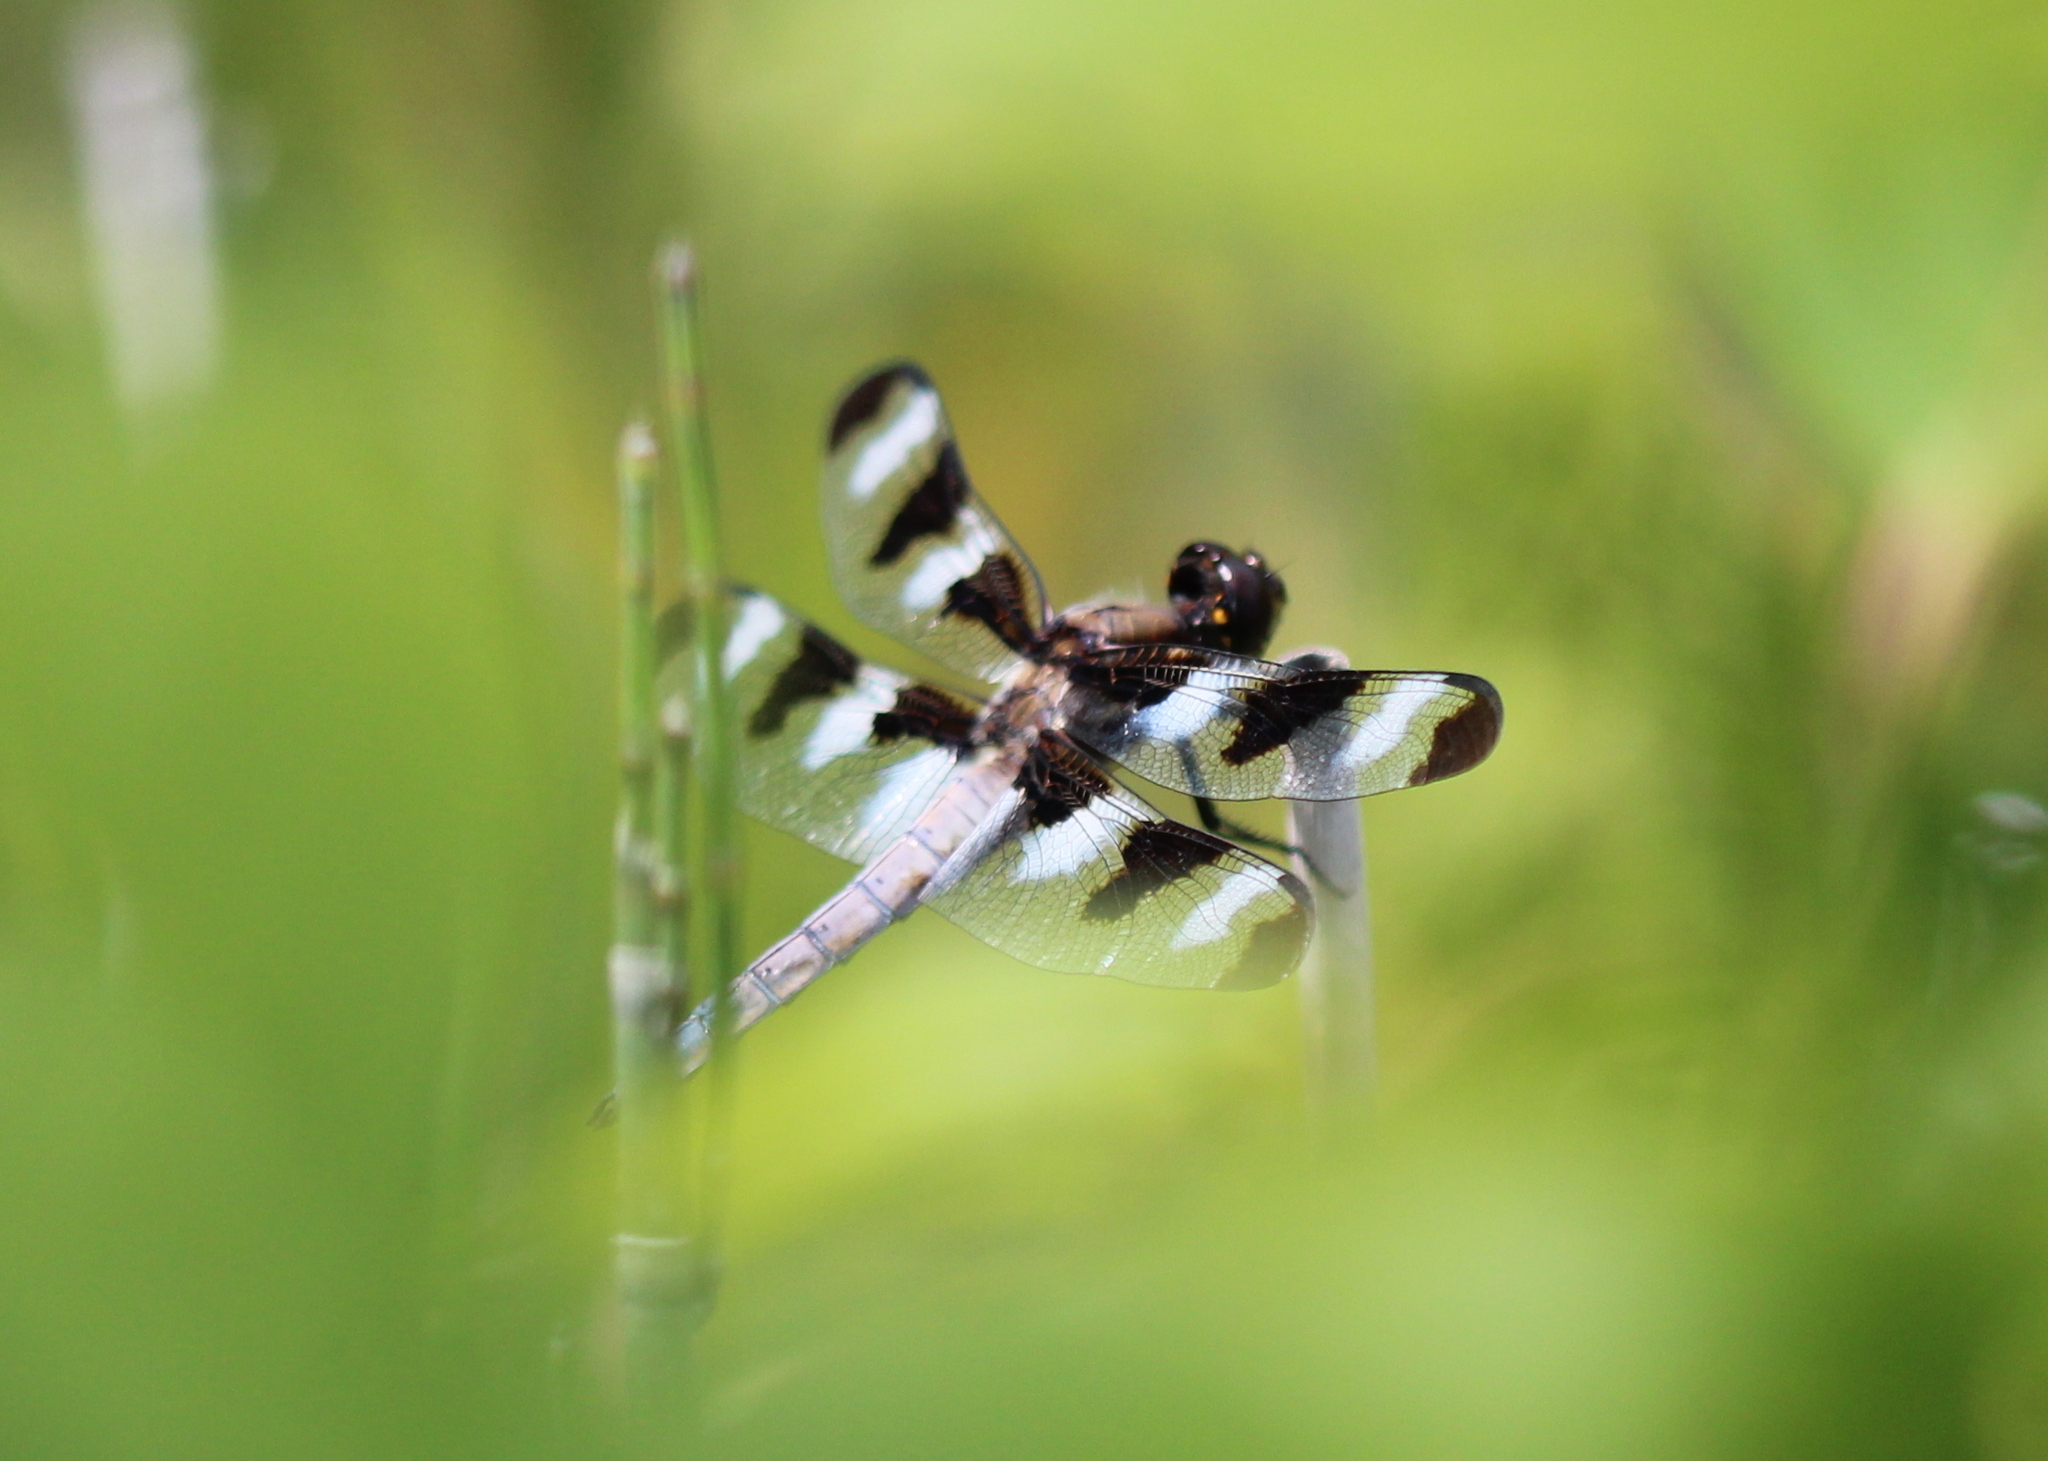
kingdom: Animalia
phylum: Arthropoda
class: Insecta
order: Odonata
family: Libellulidae
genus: Libellula
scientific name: Libellula pulchella
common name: Twelve-spotted skimmer
